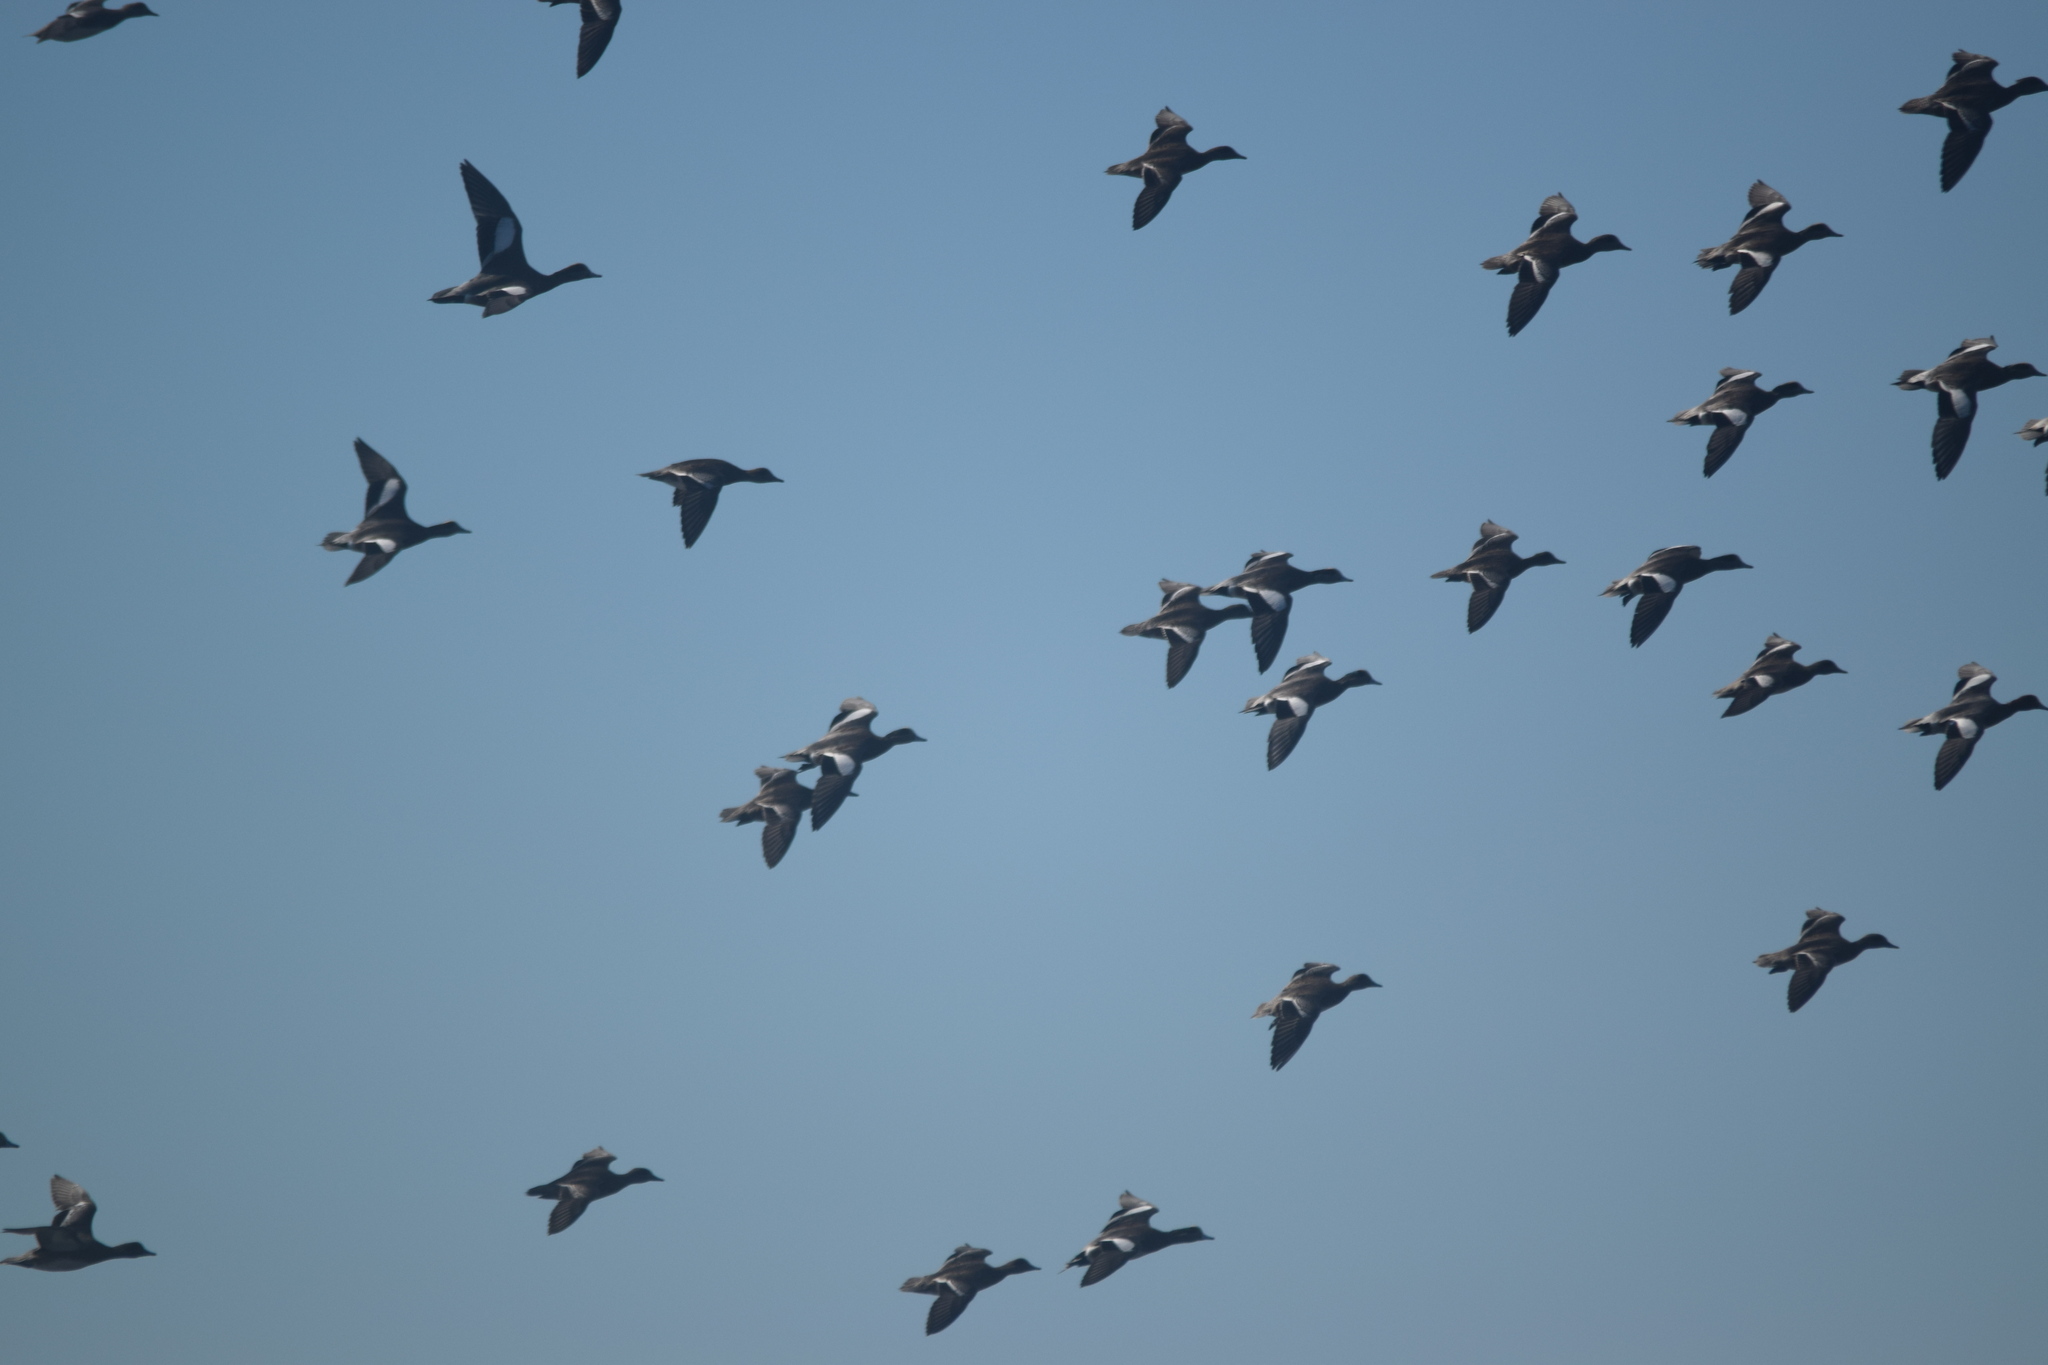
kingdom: Animalia
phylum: Chordata
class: Aves
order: Anseriformes
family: Anatidae
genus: Mareca
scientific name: Mareca americana
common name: American wigeon
